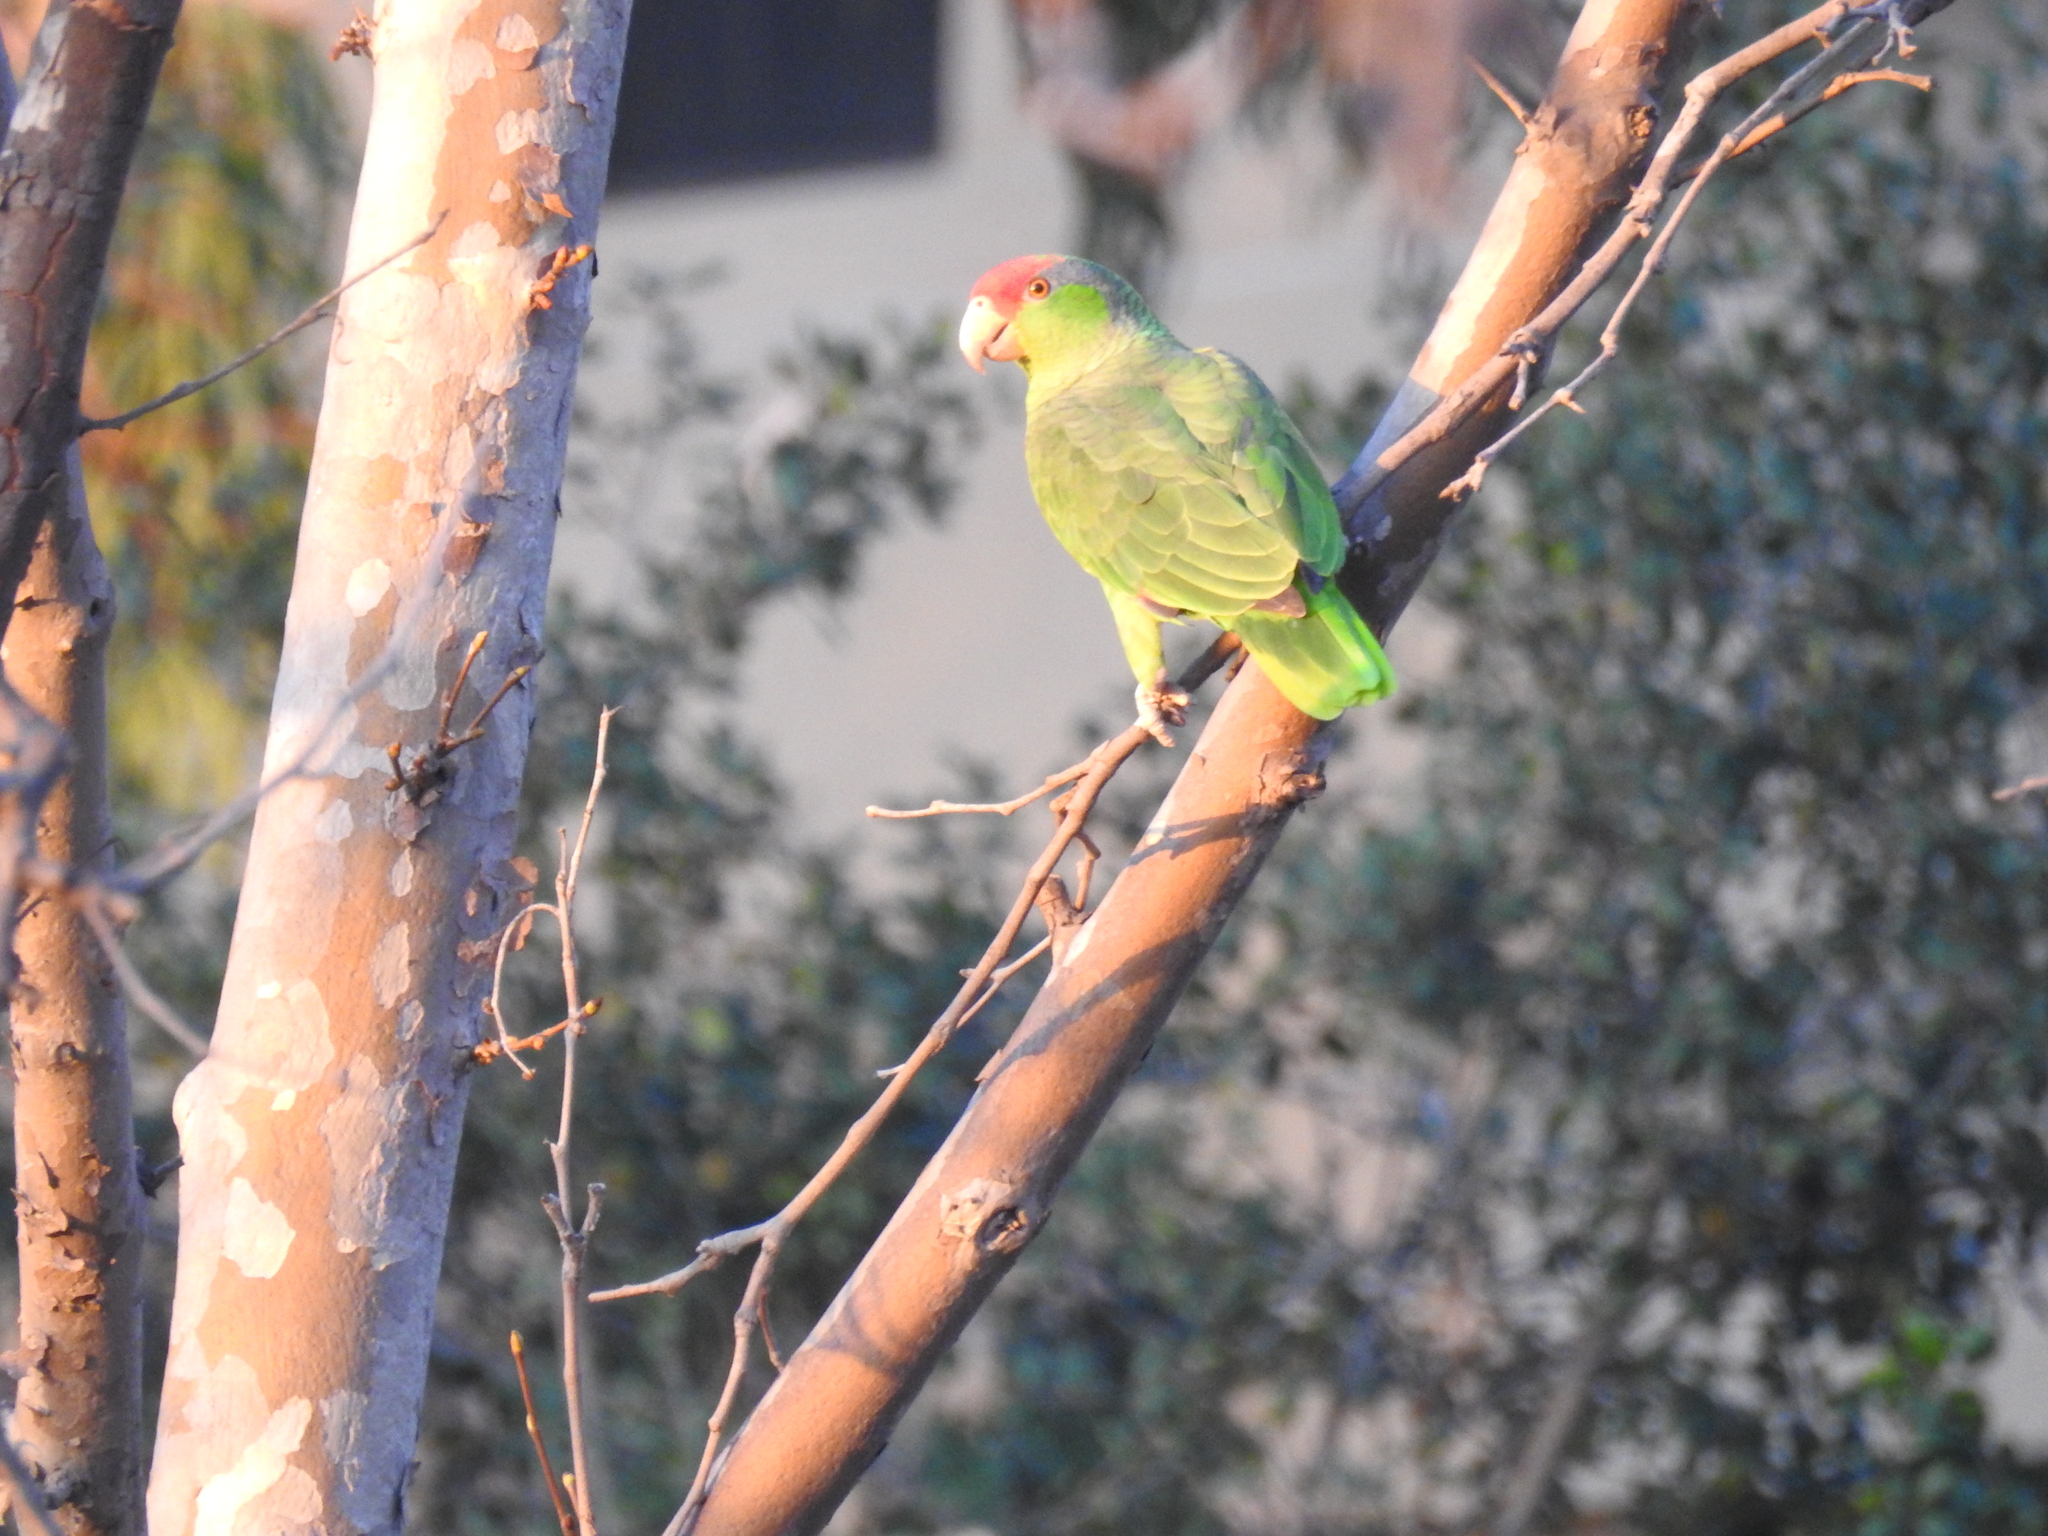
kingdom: Animalia
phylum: Chordata
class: Aves
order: Psittaciformes
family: Psittacidae
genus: Amazona
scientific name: Amazona viridigenalis
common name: Red-crowned amazon
